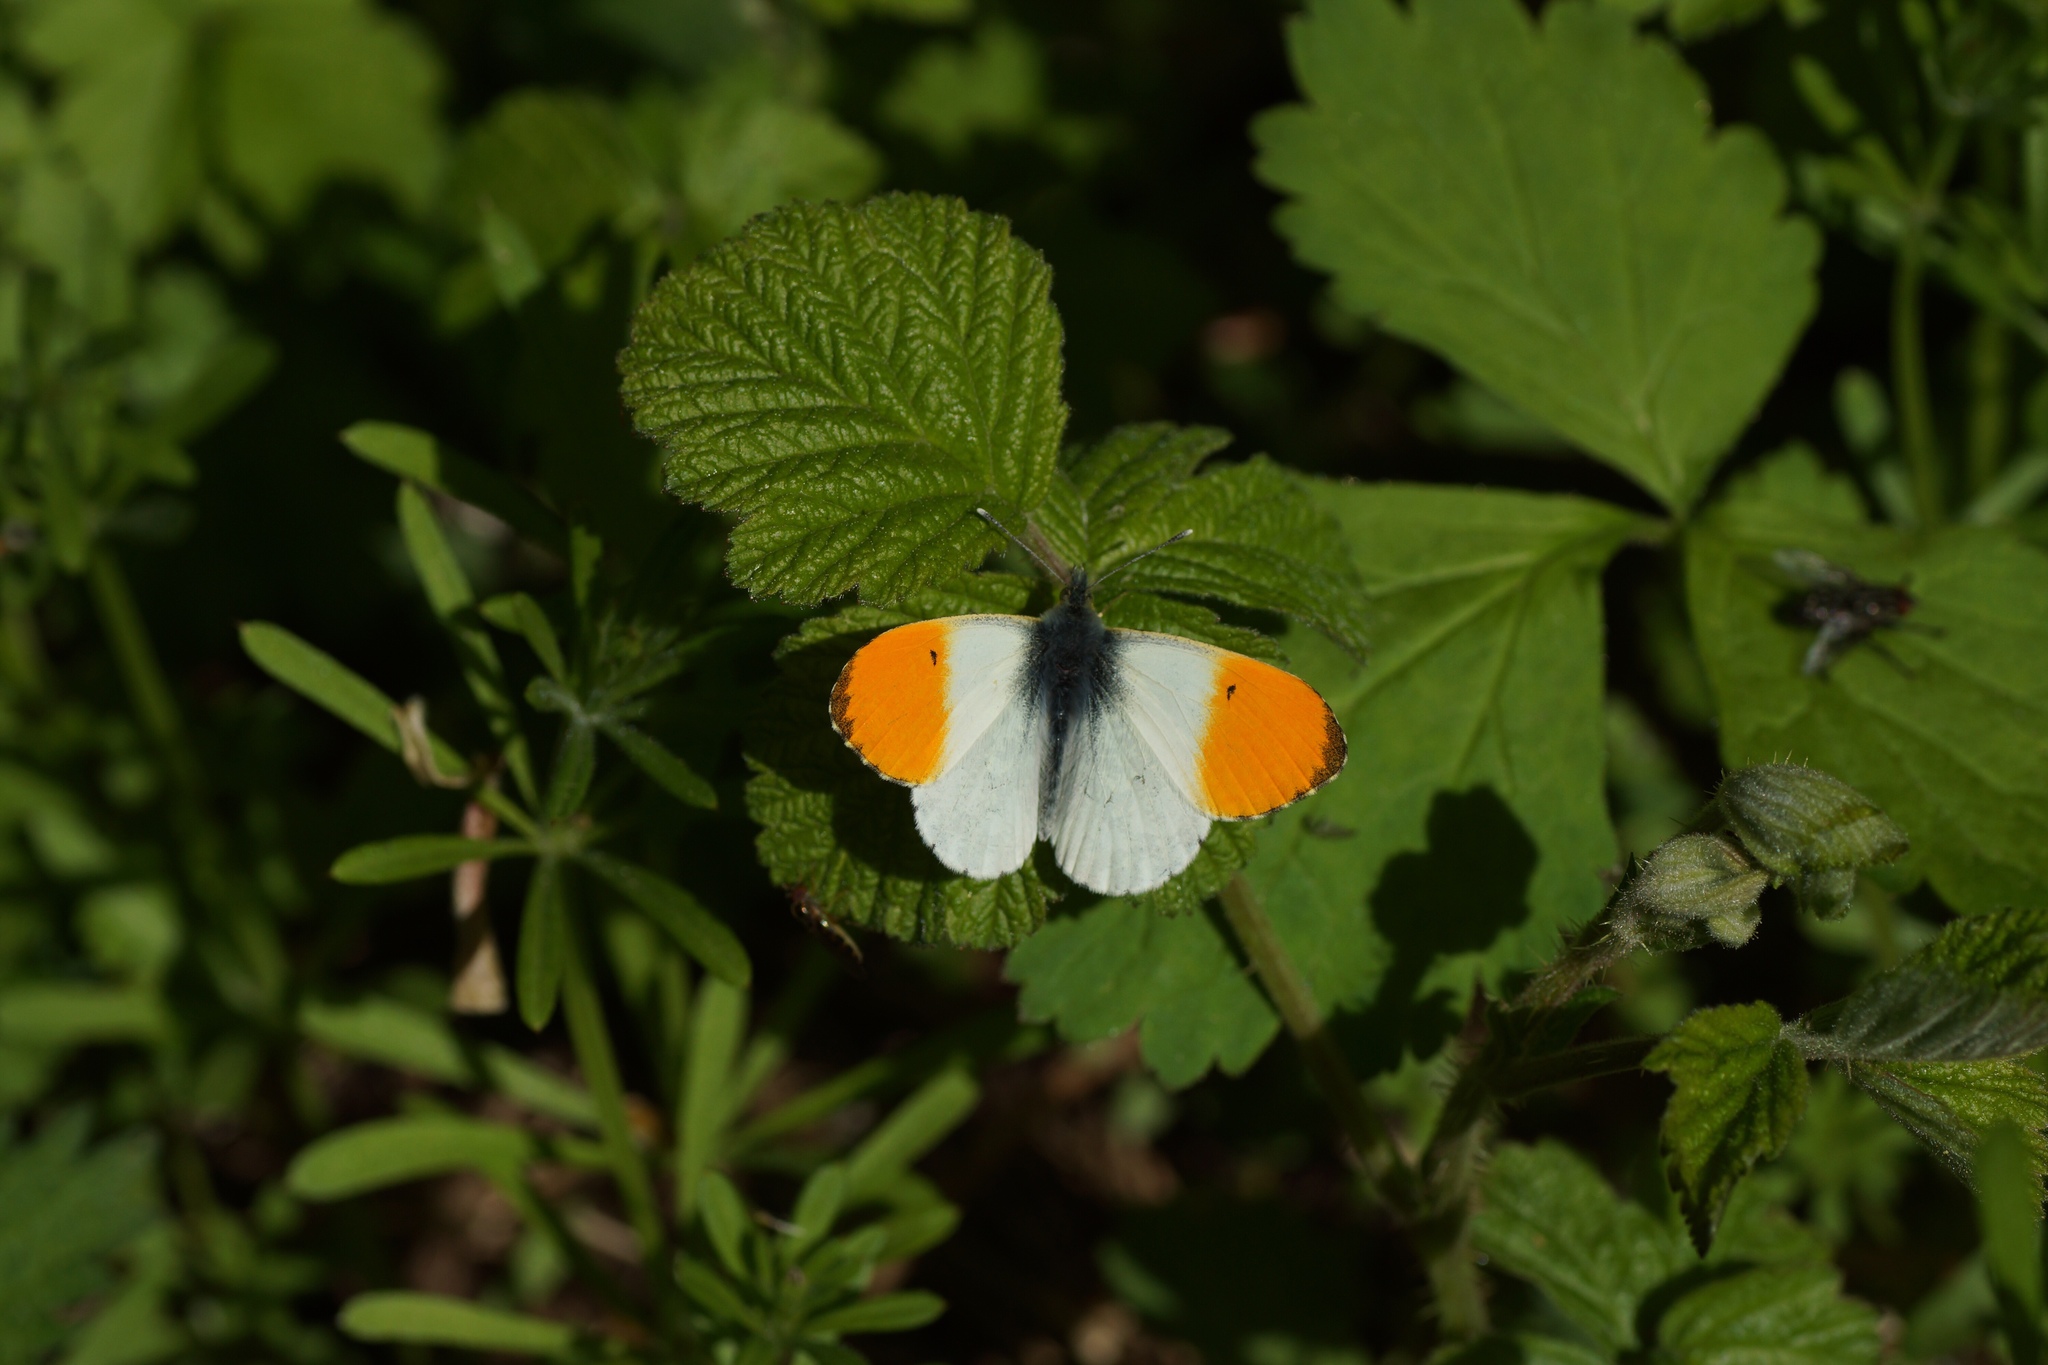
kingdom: Animalia
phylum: Arthropoda
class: Insecta
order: Lepidoptera
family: Pieridae
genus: Anthocharis
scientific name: Anthocharis cardamines
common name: Orange-tip
